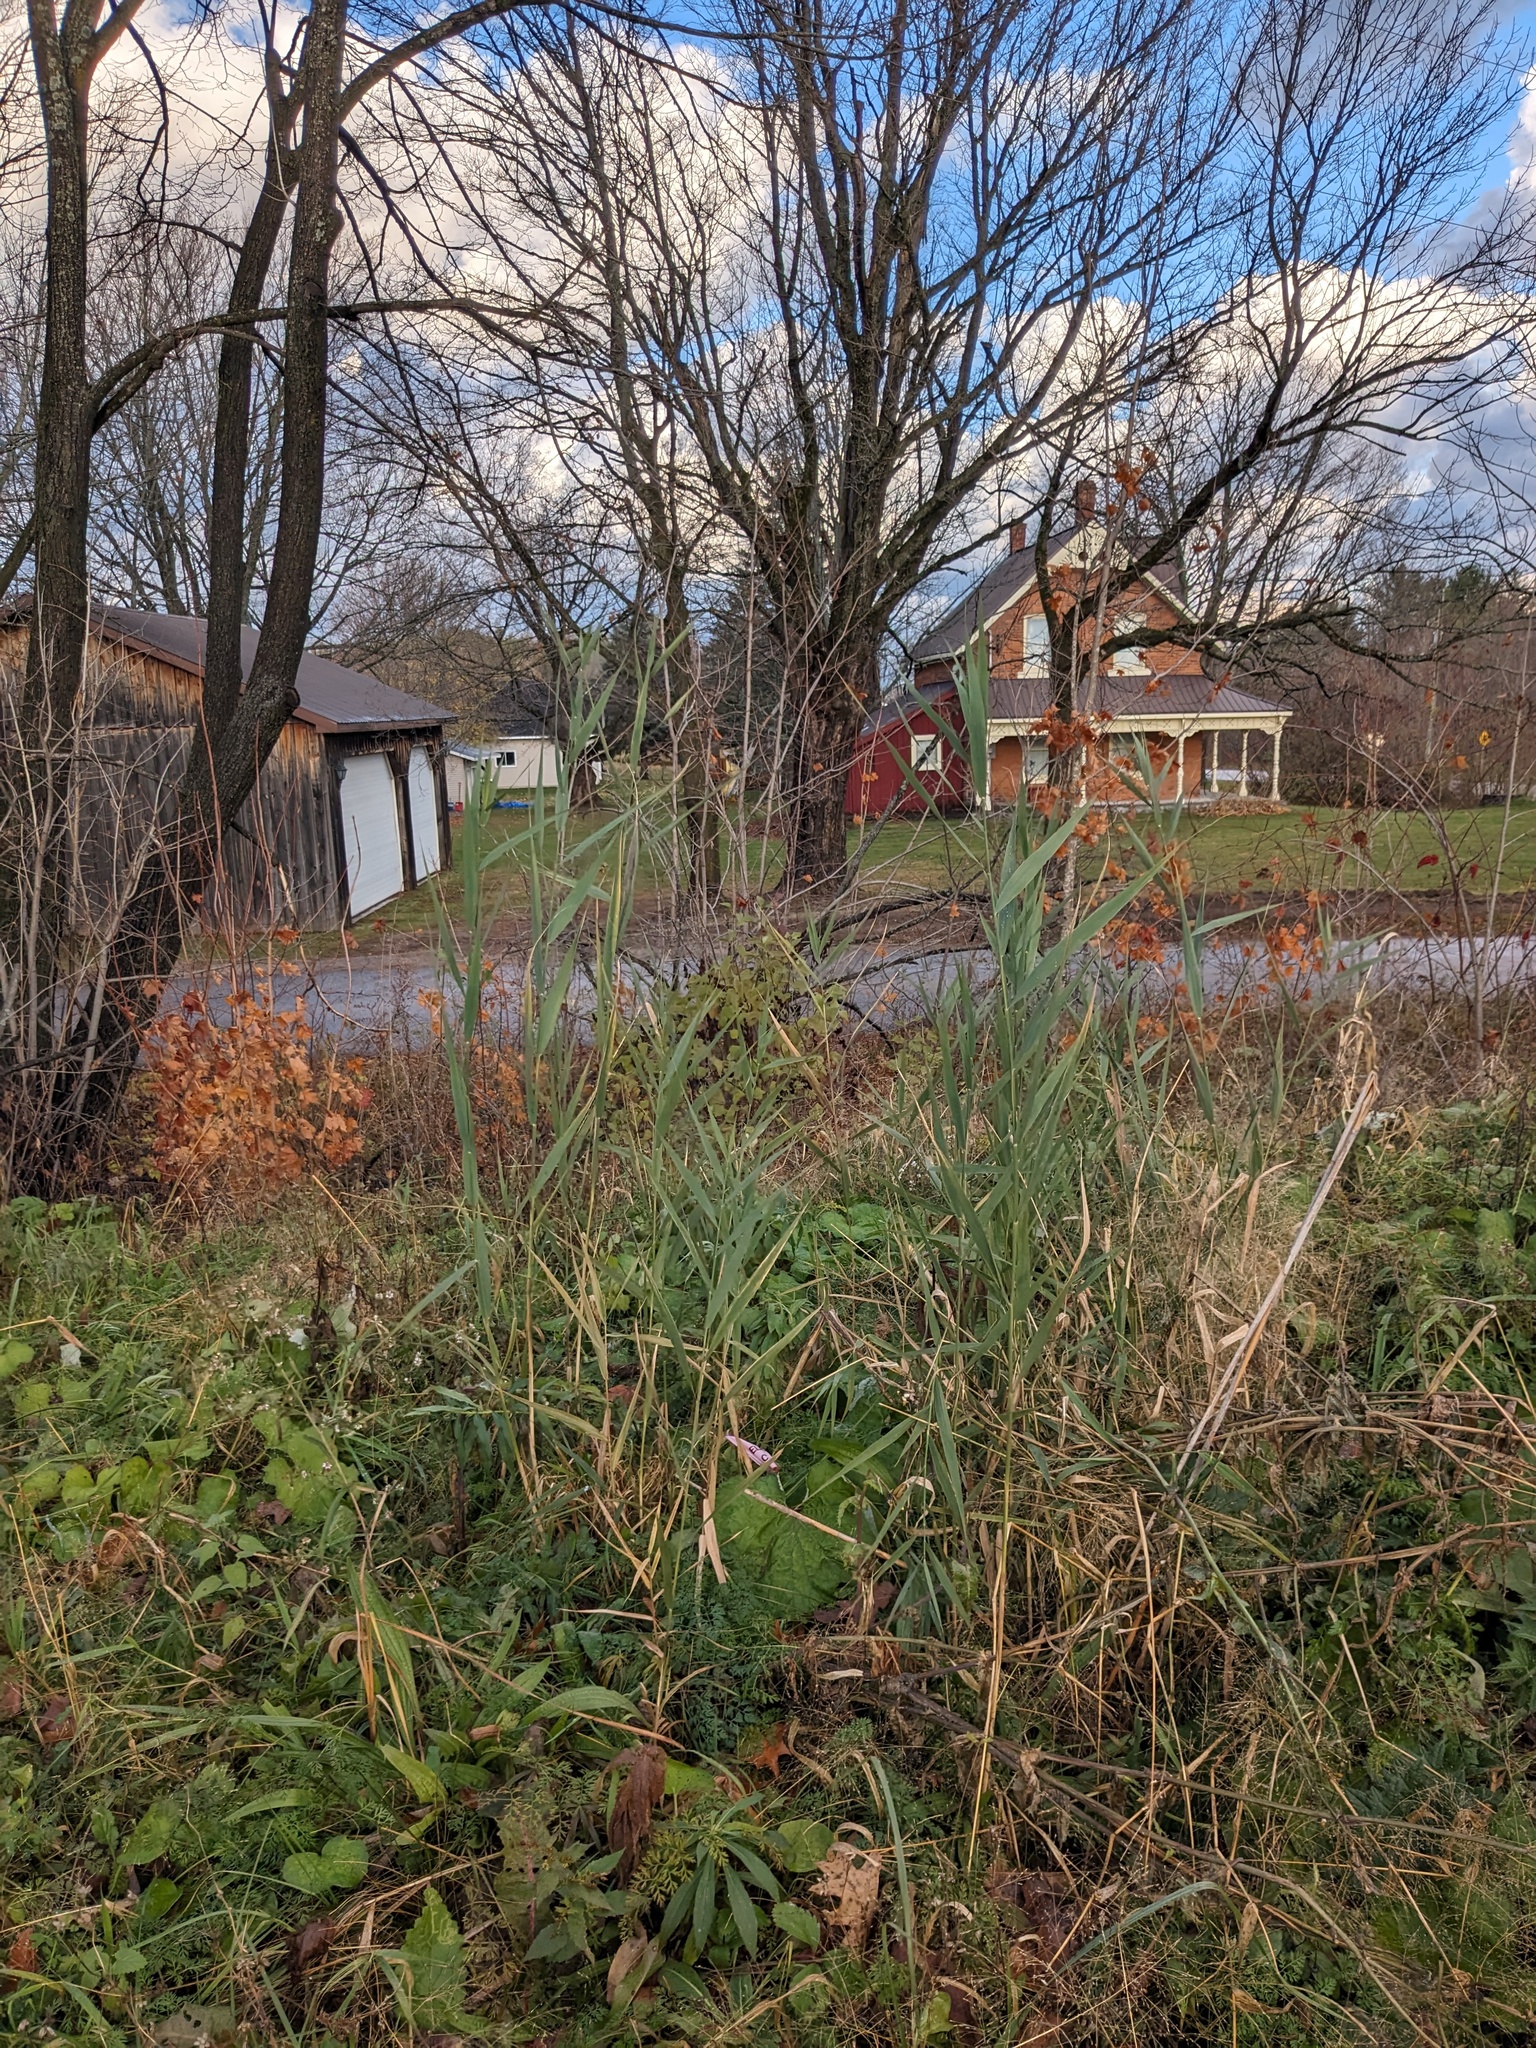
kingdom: Plantae
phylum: Tracheophyta
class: Liliopsida
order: Poales
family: Poaceae
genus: Phragmites
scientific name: Phragmites australis
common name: Common reed
